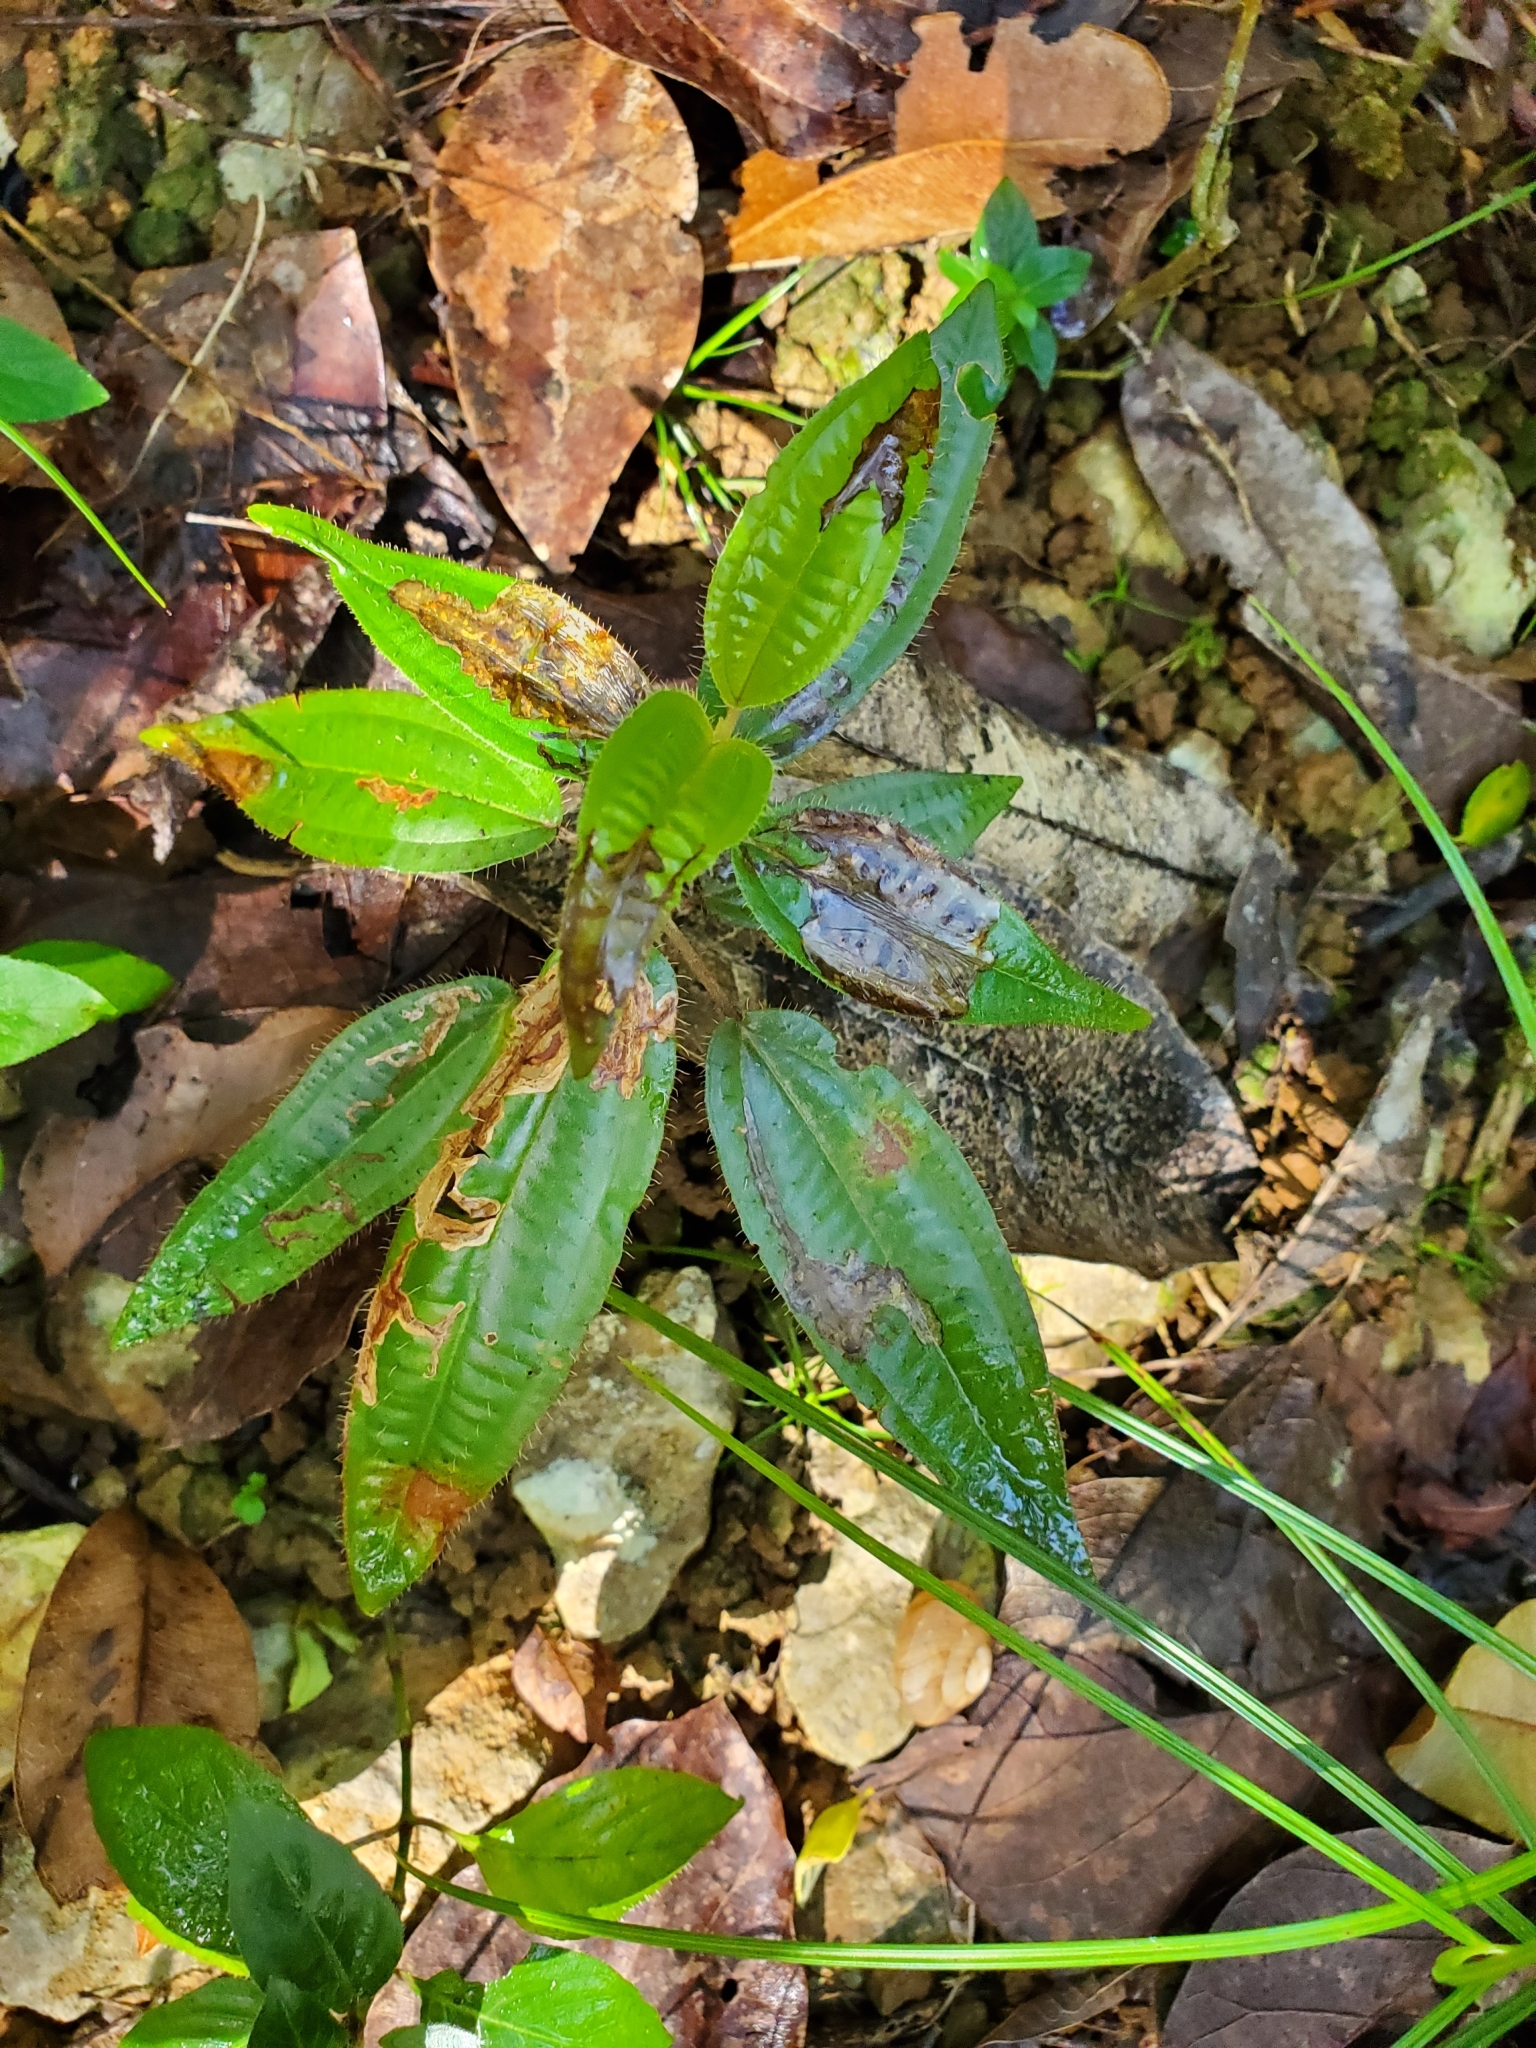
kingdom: Plantae
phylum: Tracheophyta
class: Magnoliopsida
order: Myrtales
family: Melastomataceae
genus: Miconia
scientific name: Miconia elaeagnoides
